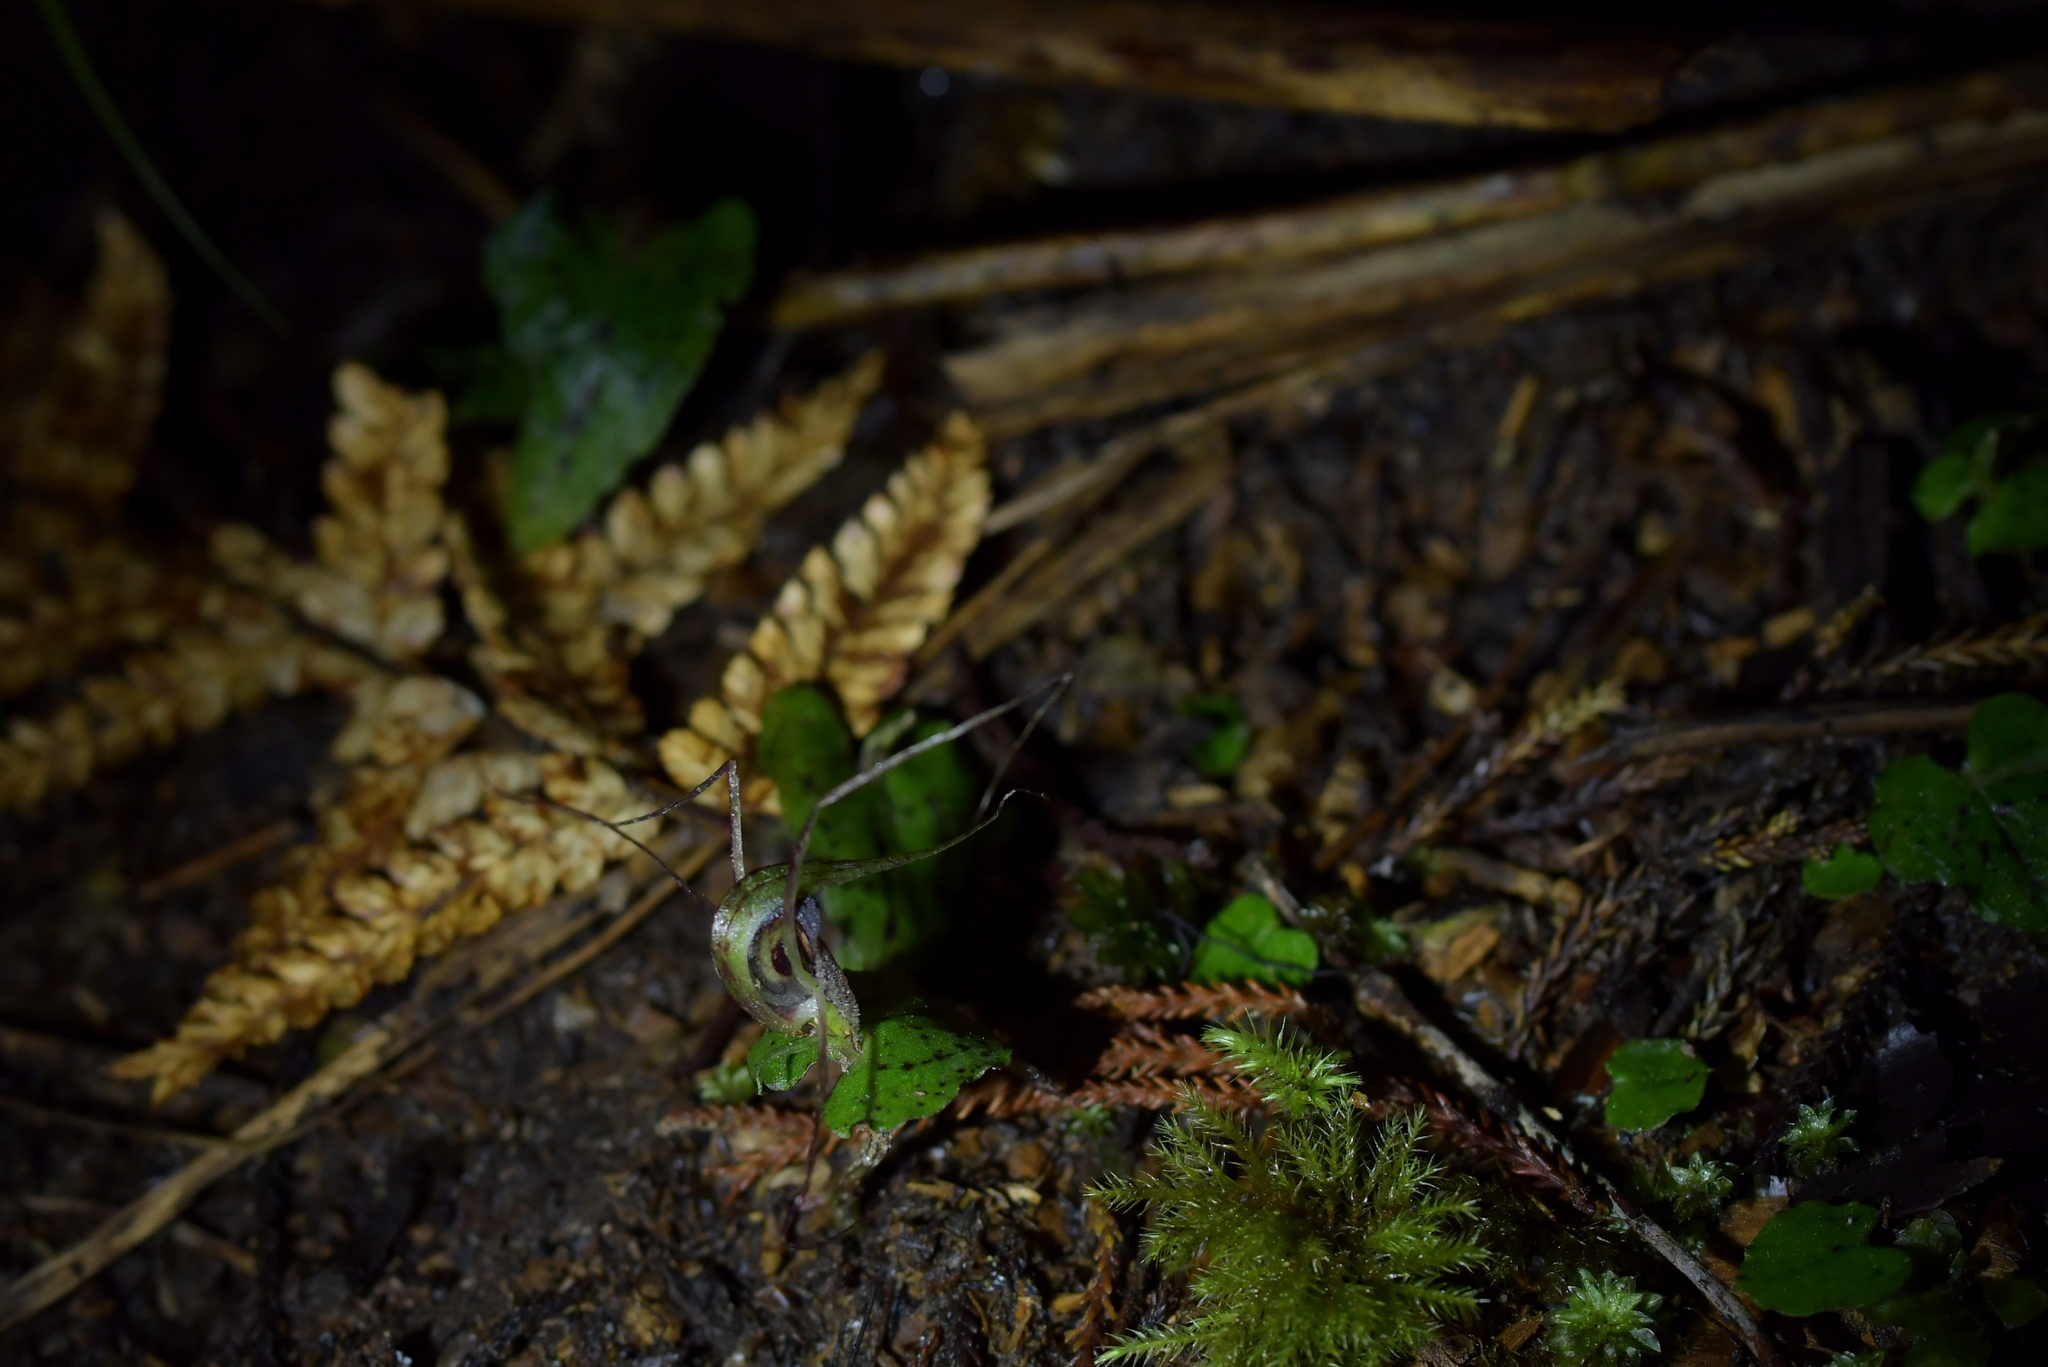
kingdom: Plantae
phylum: Tracheophyta
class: Liliopsida
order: Asparagales
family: Orchidaceae
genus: Corybas
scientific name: Corybas acuminatus
